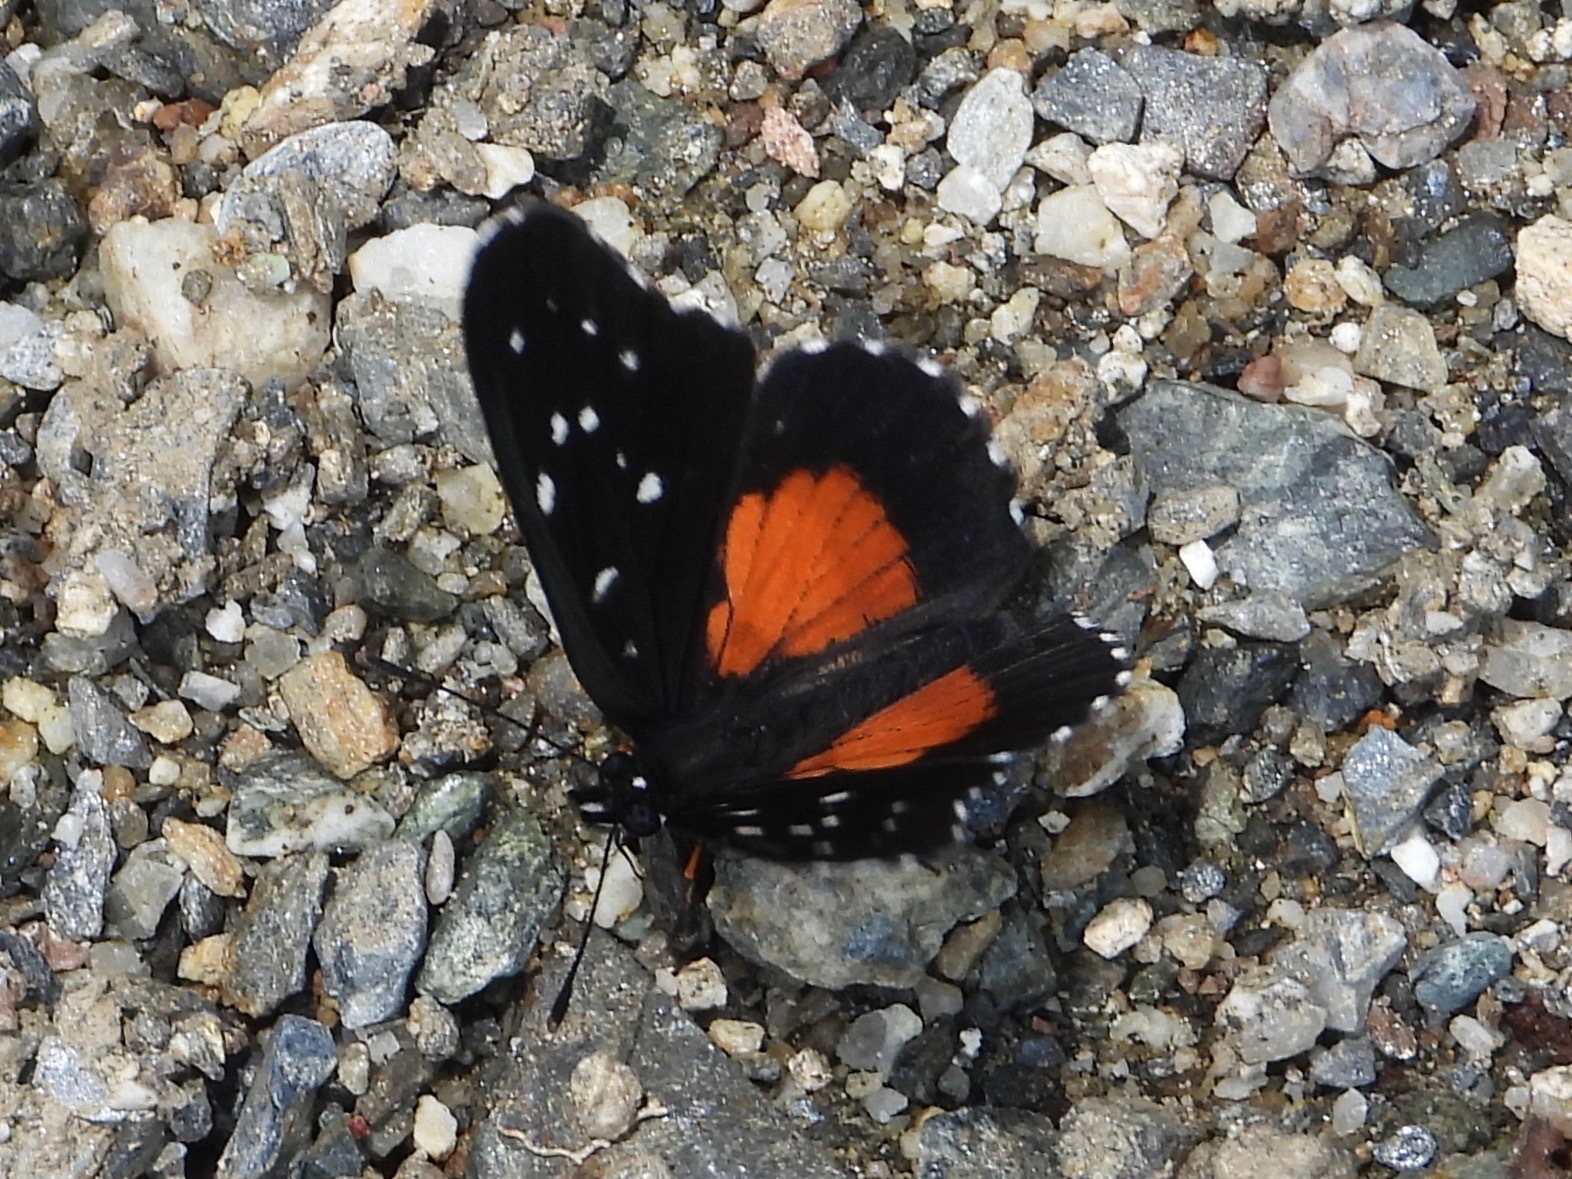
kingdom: Animalia
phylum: Arthropoda
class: Insecta
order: Lepidoptera
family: Nymphalidae
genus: Chlosyne
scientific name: Chlosyne janais
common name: Crimson patch
